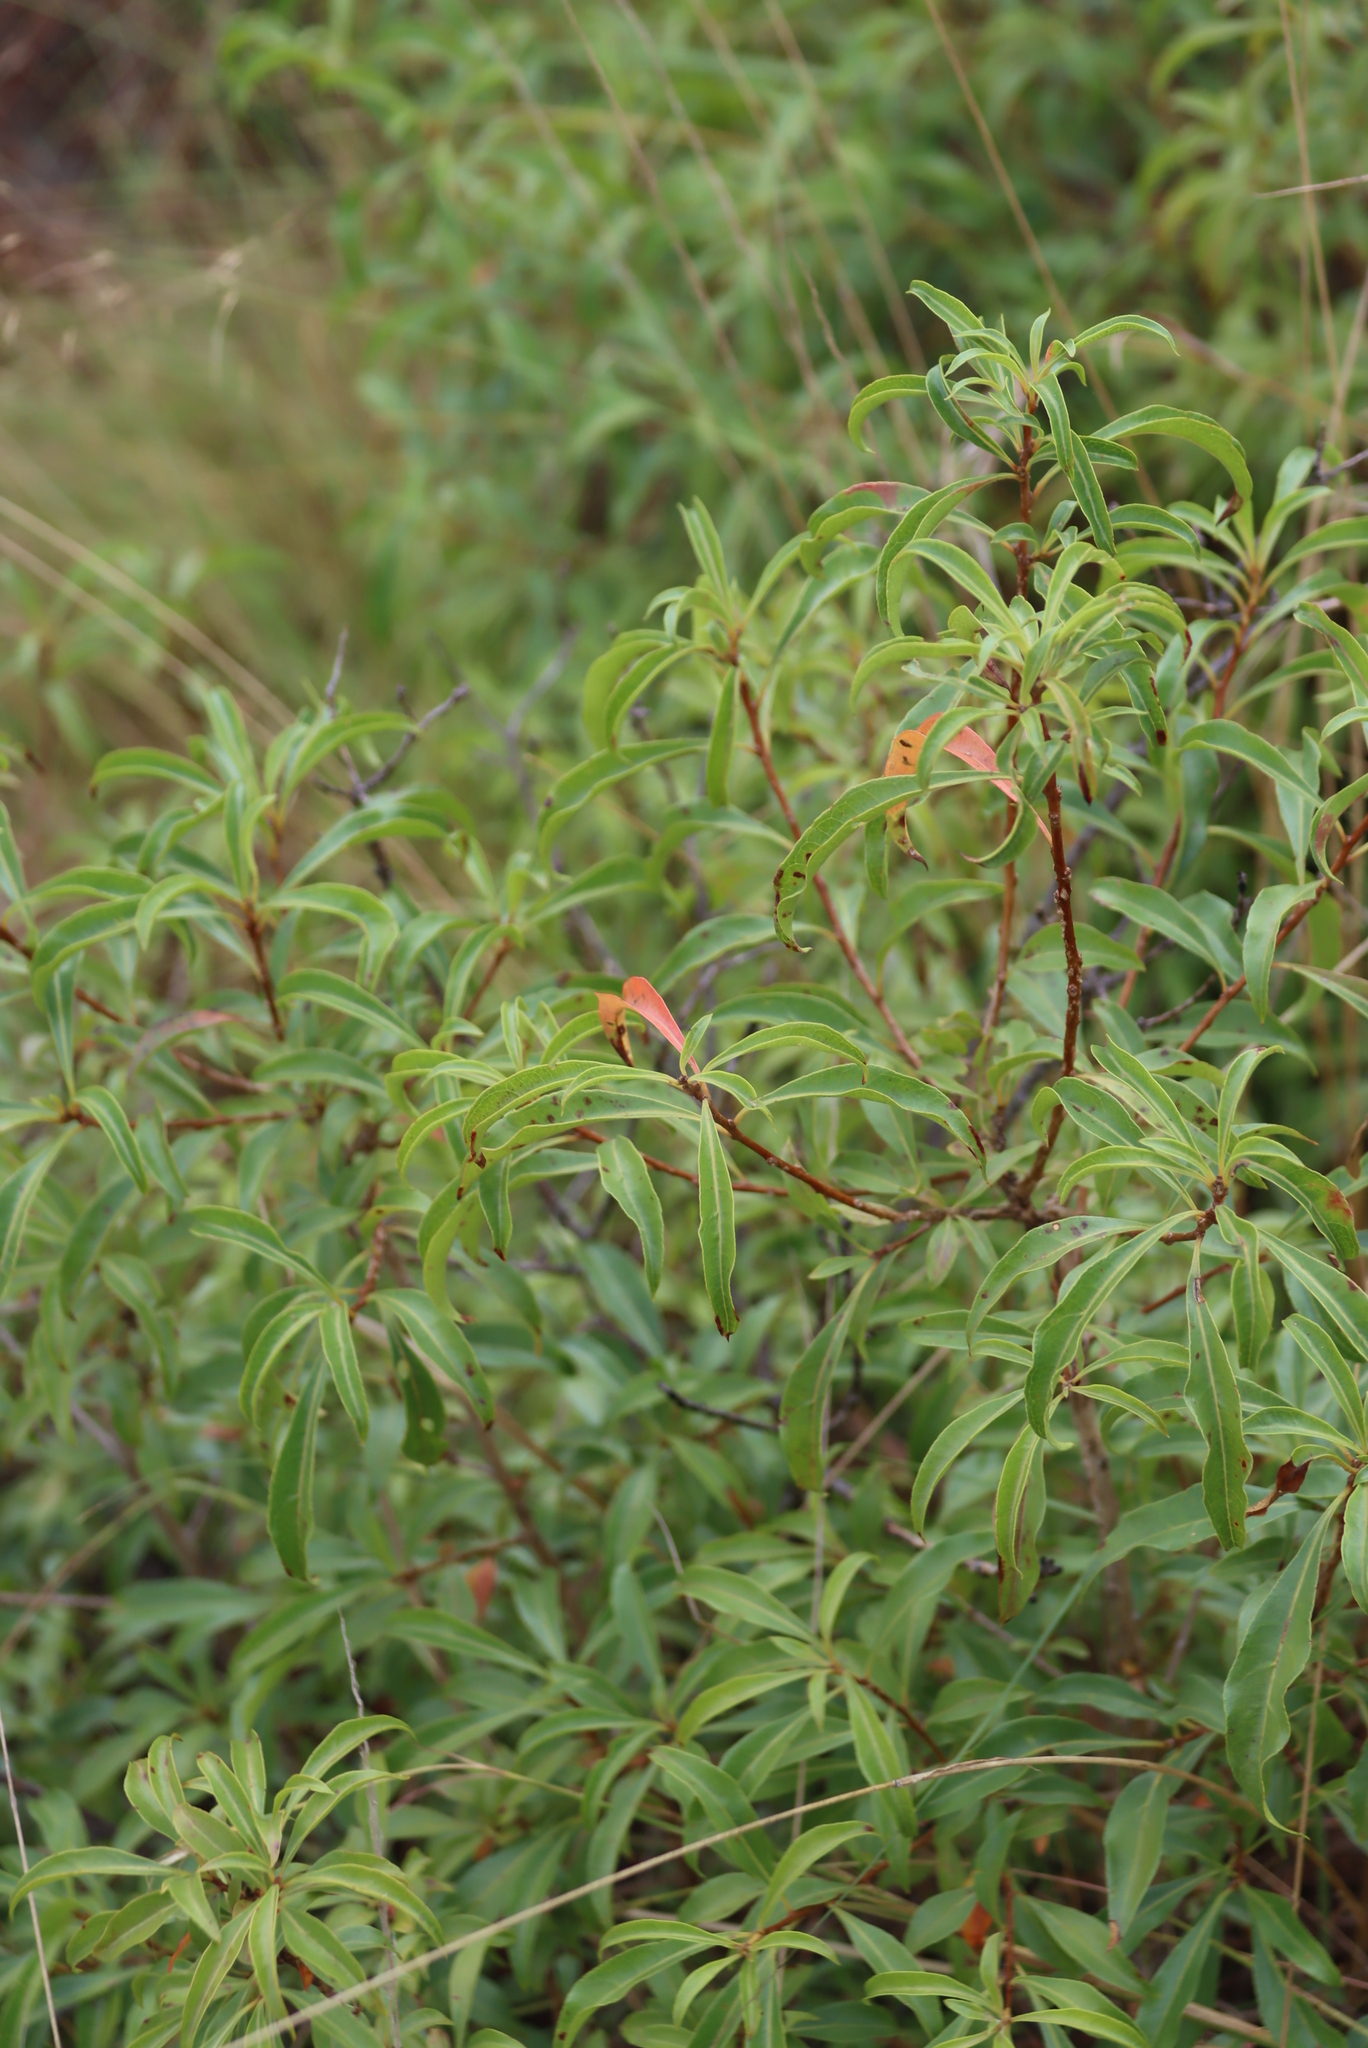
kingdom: Plantae
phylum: Tracheophyta
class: Magnoliopsida
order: Myrtales
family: Myrtaceae
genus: Heteropyxis
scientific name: Heteropyxis natalensis
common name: Lavender tree
